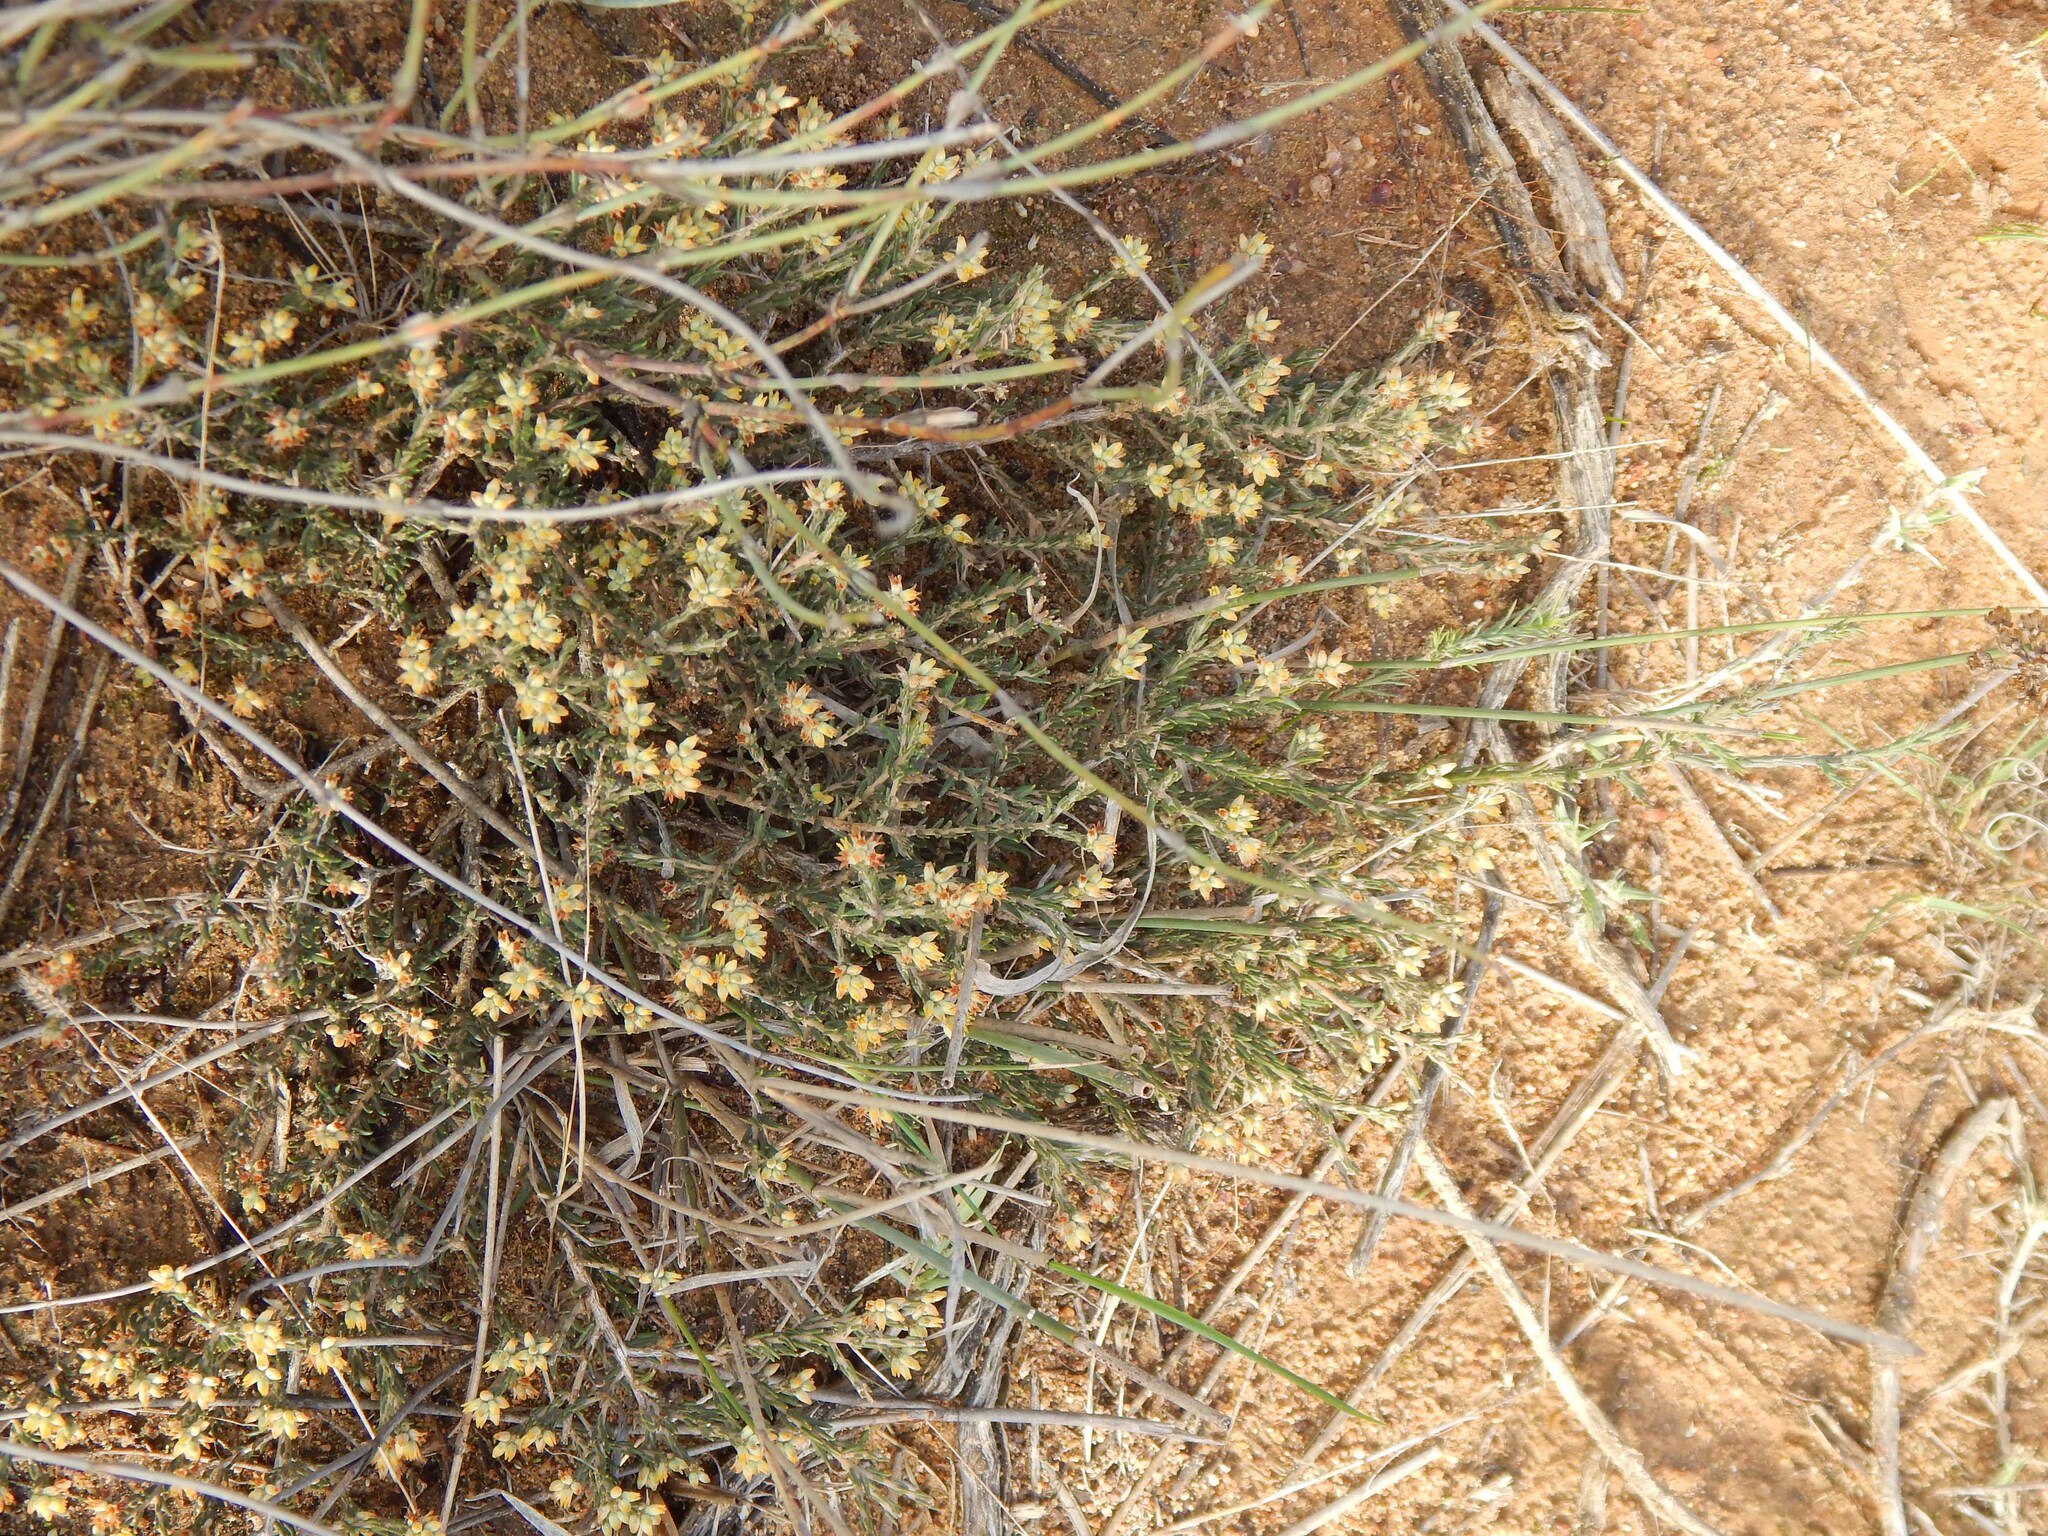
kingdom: Plantae
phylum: Tracheophyta
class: Magnoliopsida
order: Rosales
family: Rhamnaceae
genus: Phylica
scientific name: Phylica strigulosa
